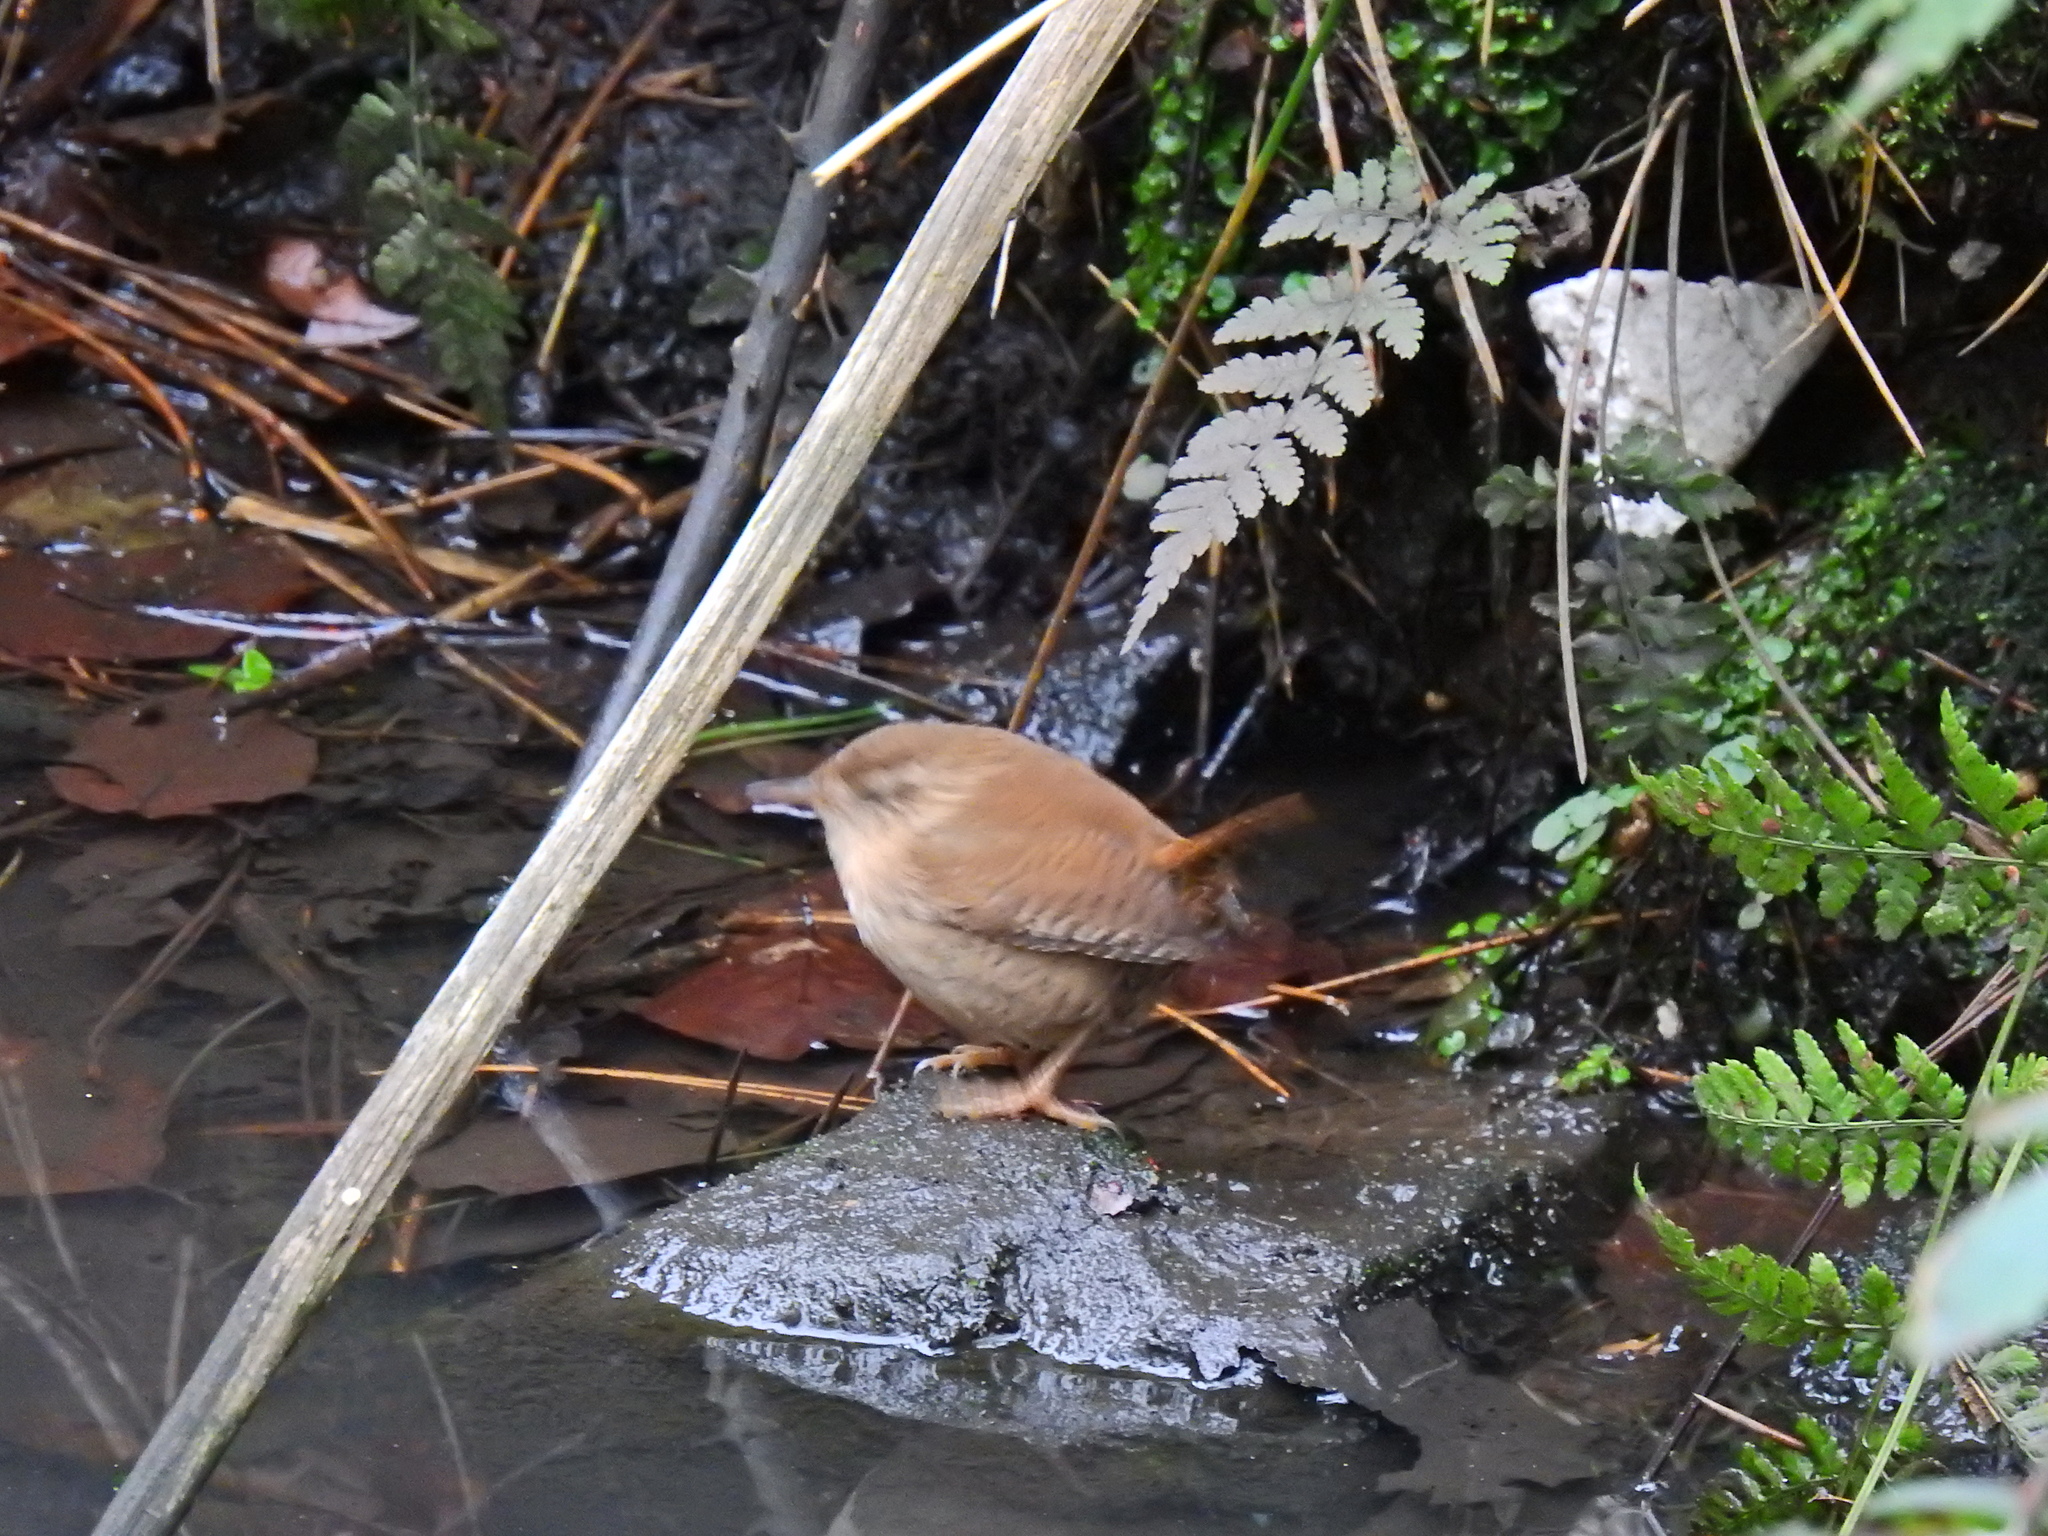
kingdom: Animalia
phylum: Chordata
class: Aves
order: Passeriformes
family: Troglodytidae
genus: Troglodytes
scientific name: Troglodytes troglodytes
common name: Eurasian wren
